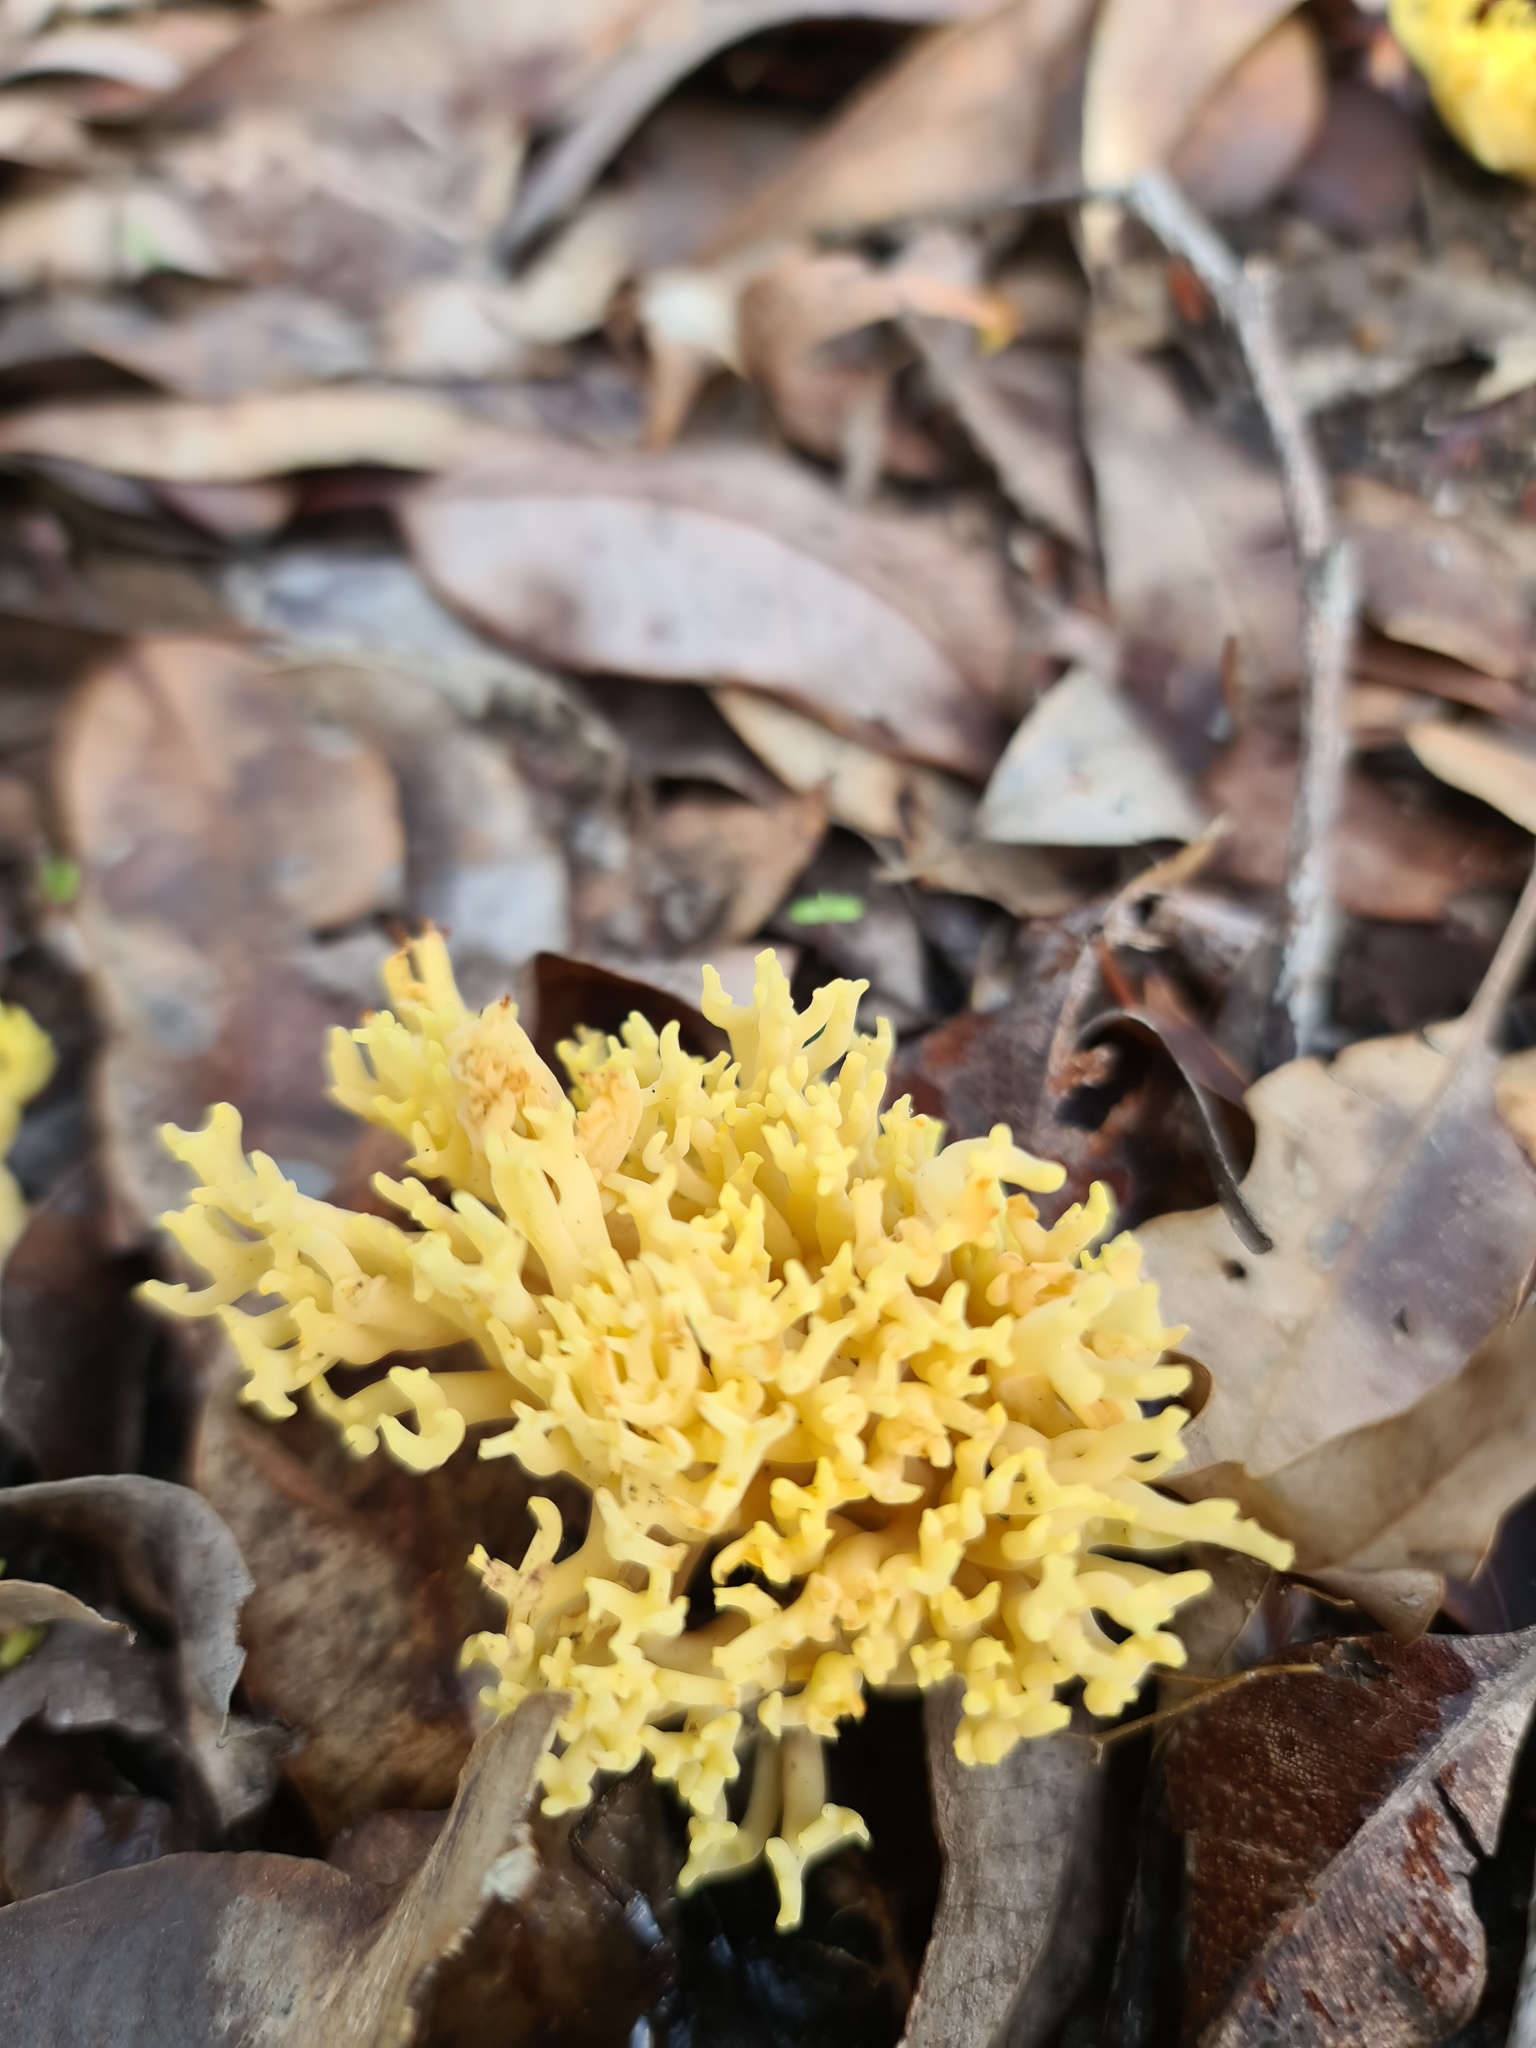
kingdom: Fungi
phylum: Basidiomycota
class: Agaricomycetes
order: Gomphales
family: Gomphaceae
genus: Ramaria
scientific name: Ramaria lorithamnus
